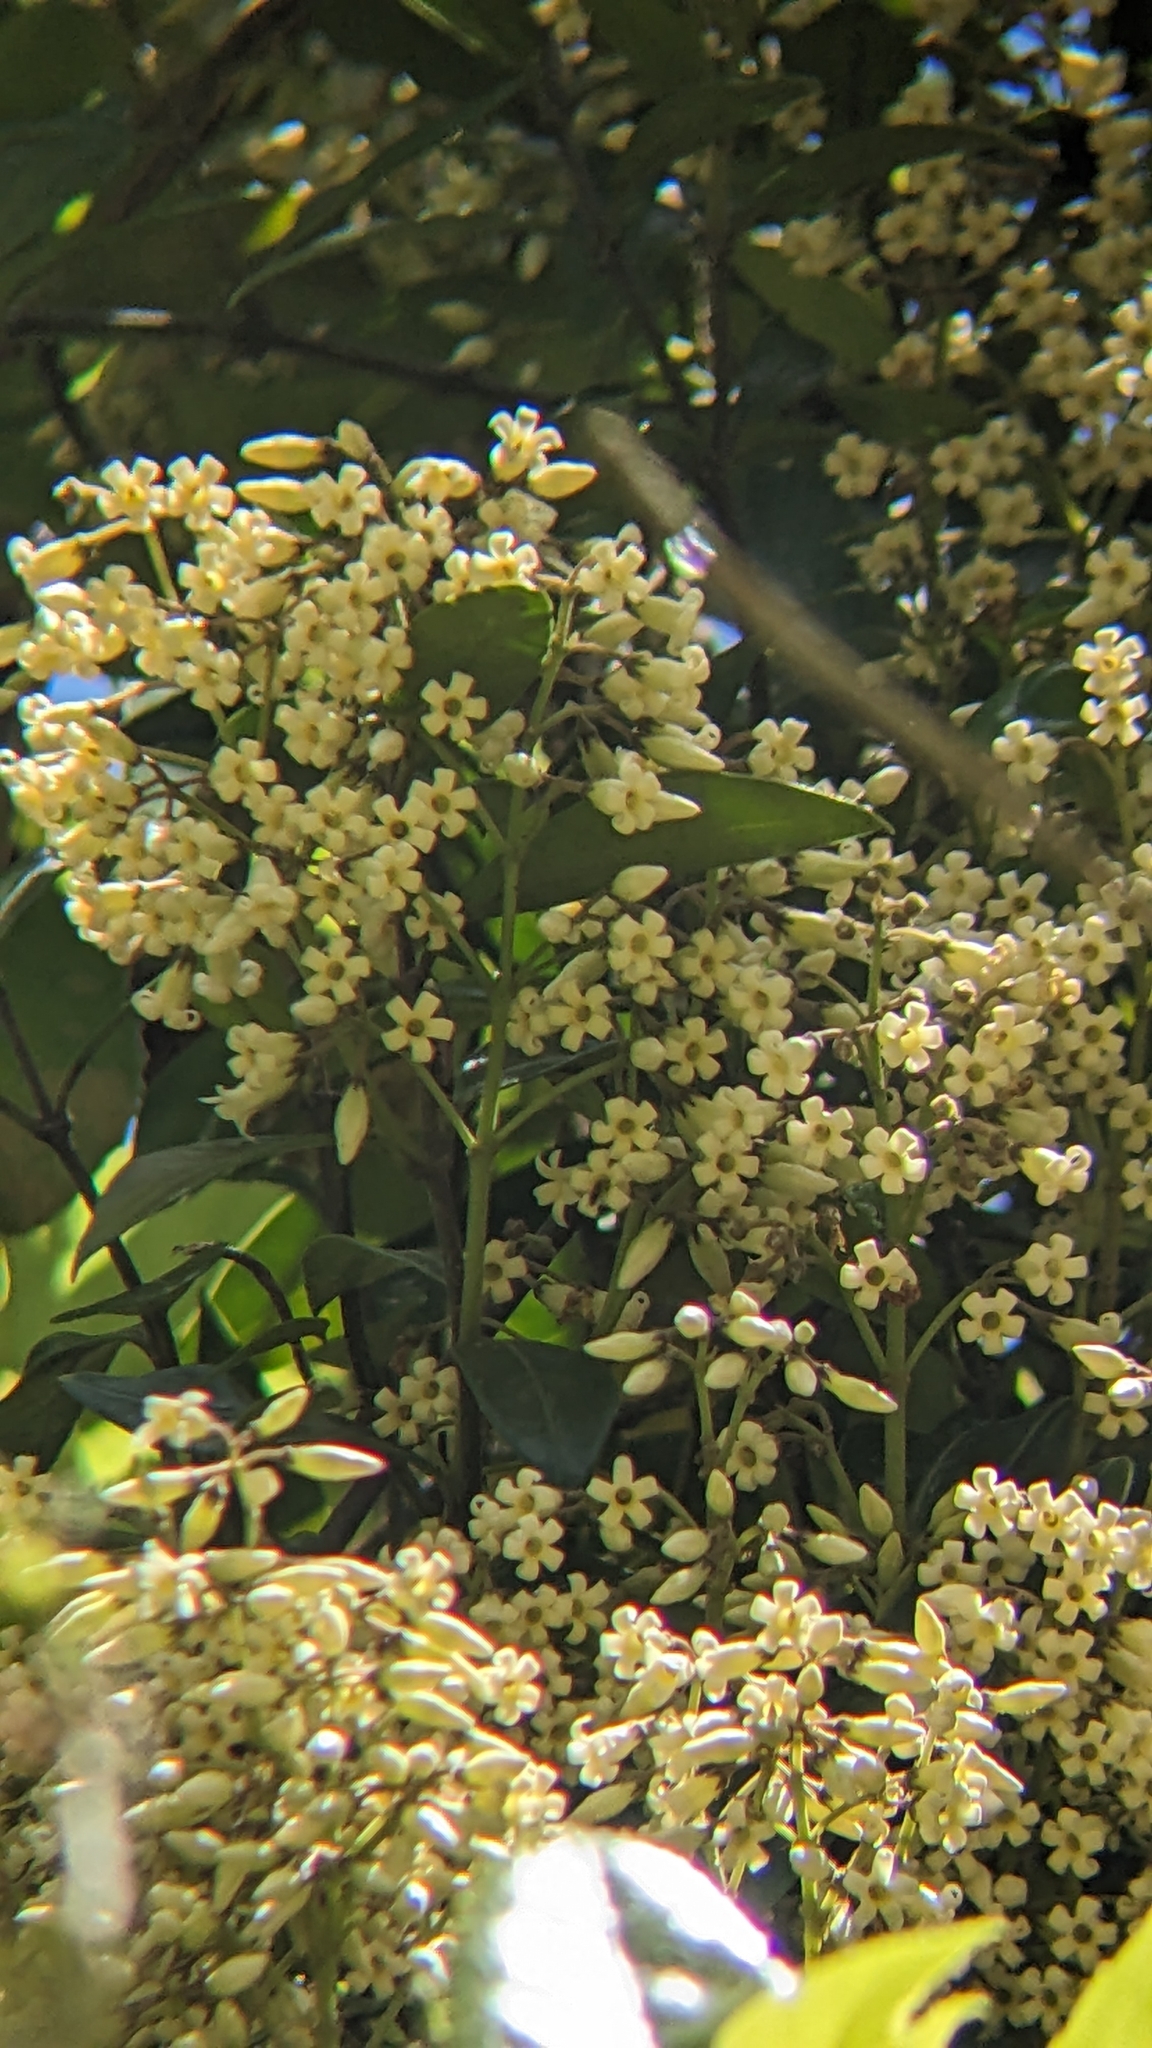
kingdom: Plantae
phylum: Tracheophyta
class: Magnoliopsida
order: Gentianales
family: Apocynaceae
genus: Parsonsia
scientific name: Parsonsia heterophylla
